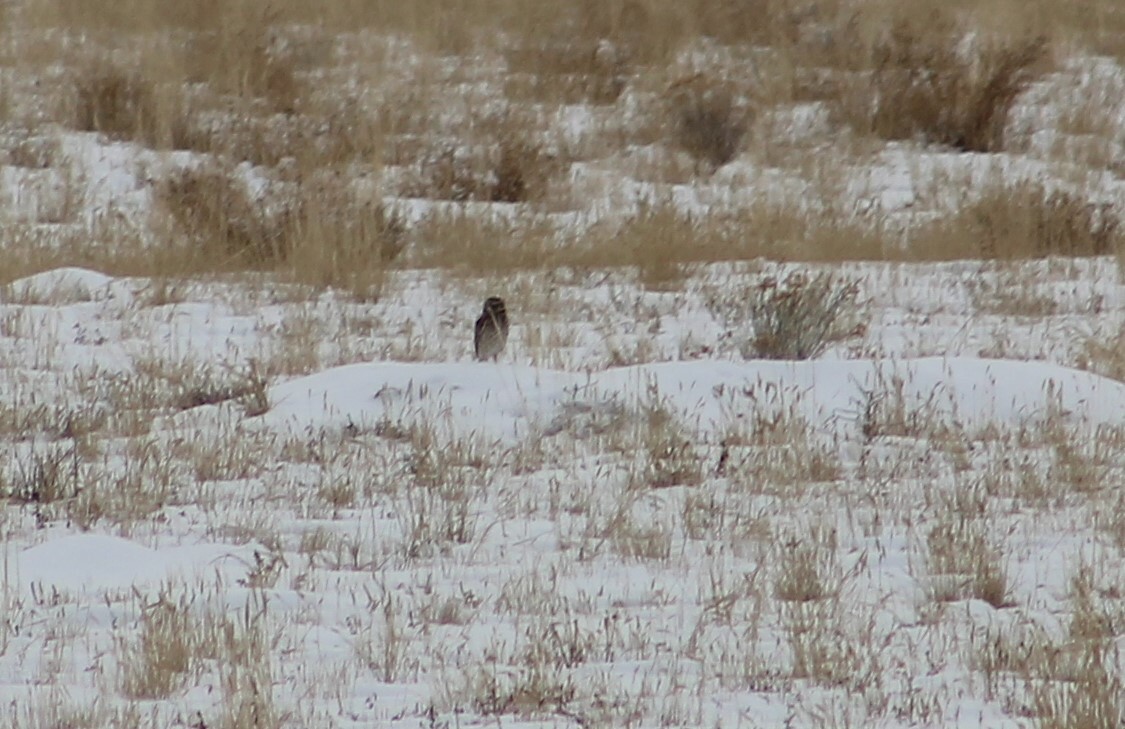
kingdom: Animalia
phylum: Chordata
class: Aves
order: Strigiformes
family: Strigidae
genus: Athene
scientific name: Athene cunicularia
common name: Burrowing owl
